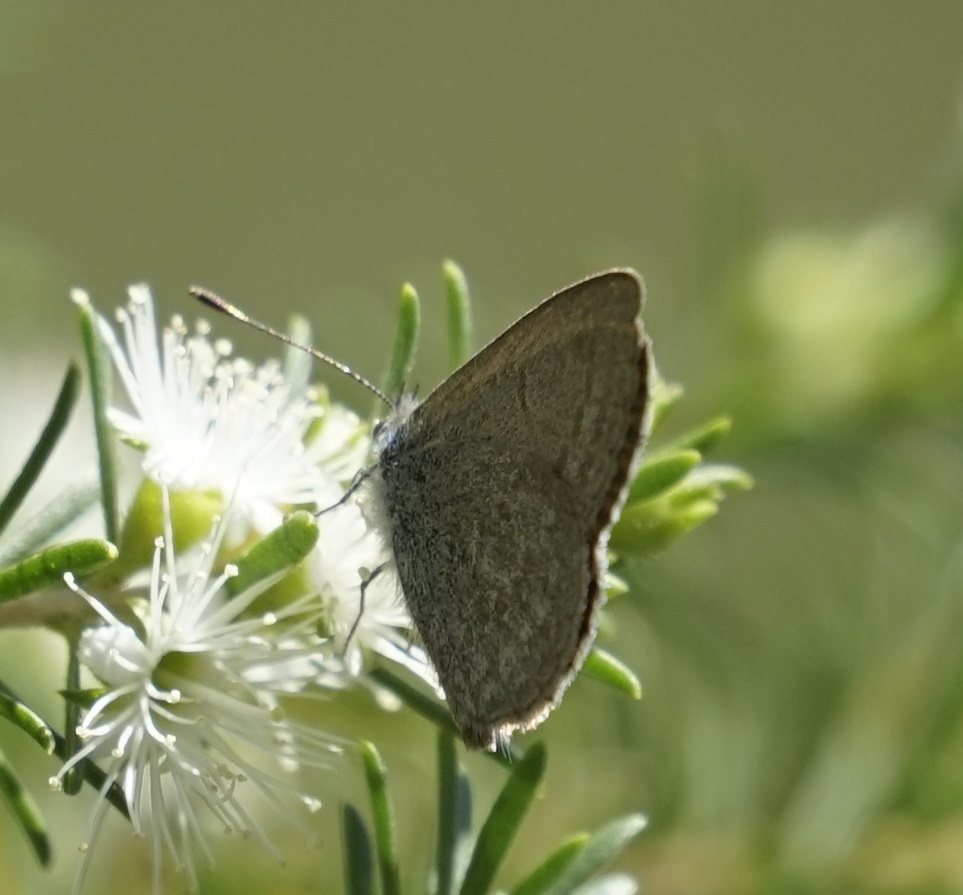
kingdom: Animalia
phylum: Arthropoda
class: Insecta
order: Lepidoptera
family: Lycaenidae
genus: Zizina
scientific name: Zizina labradus
